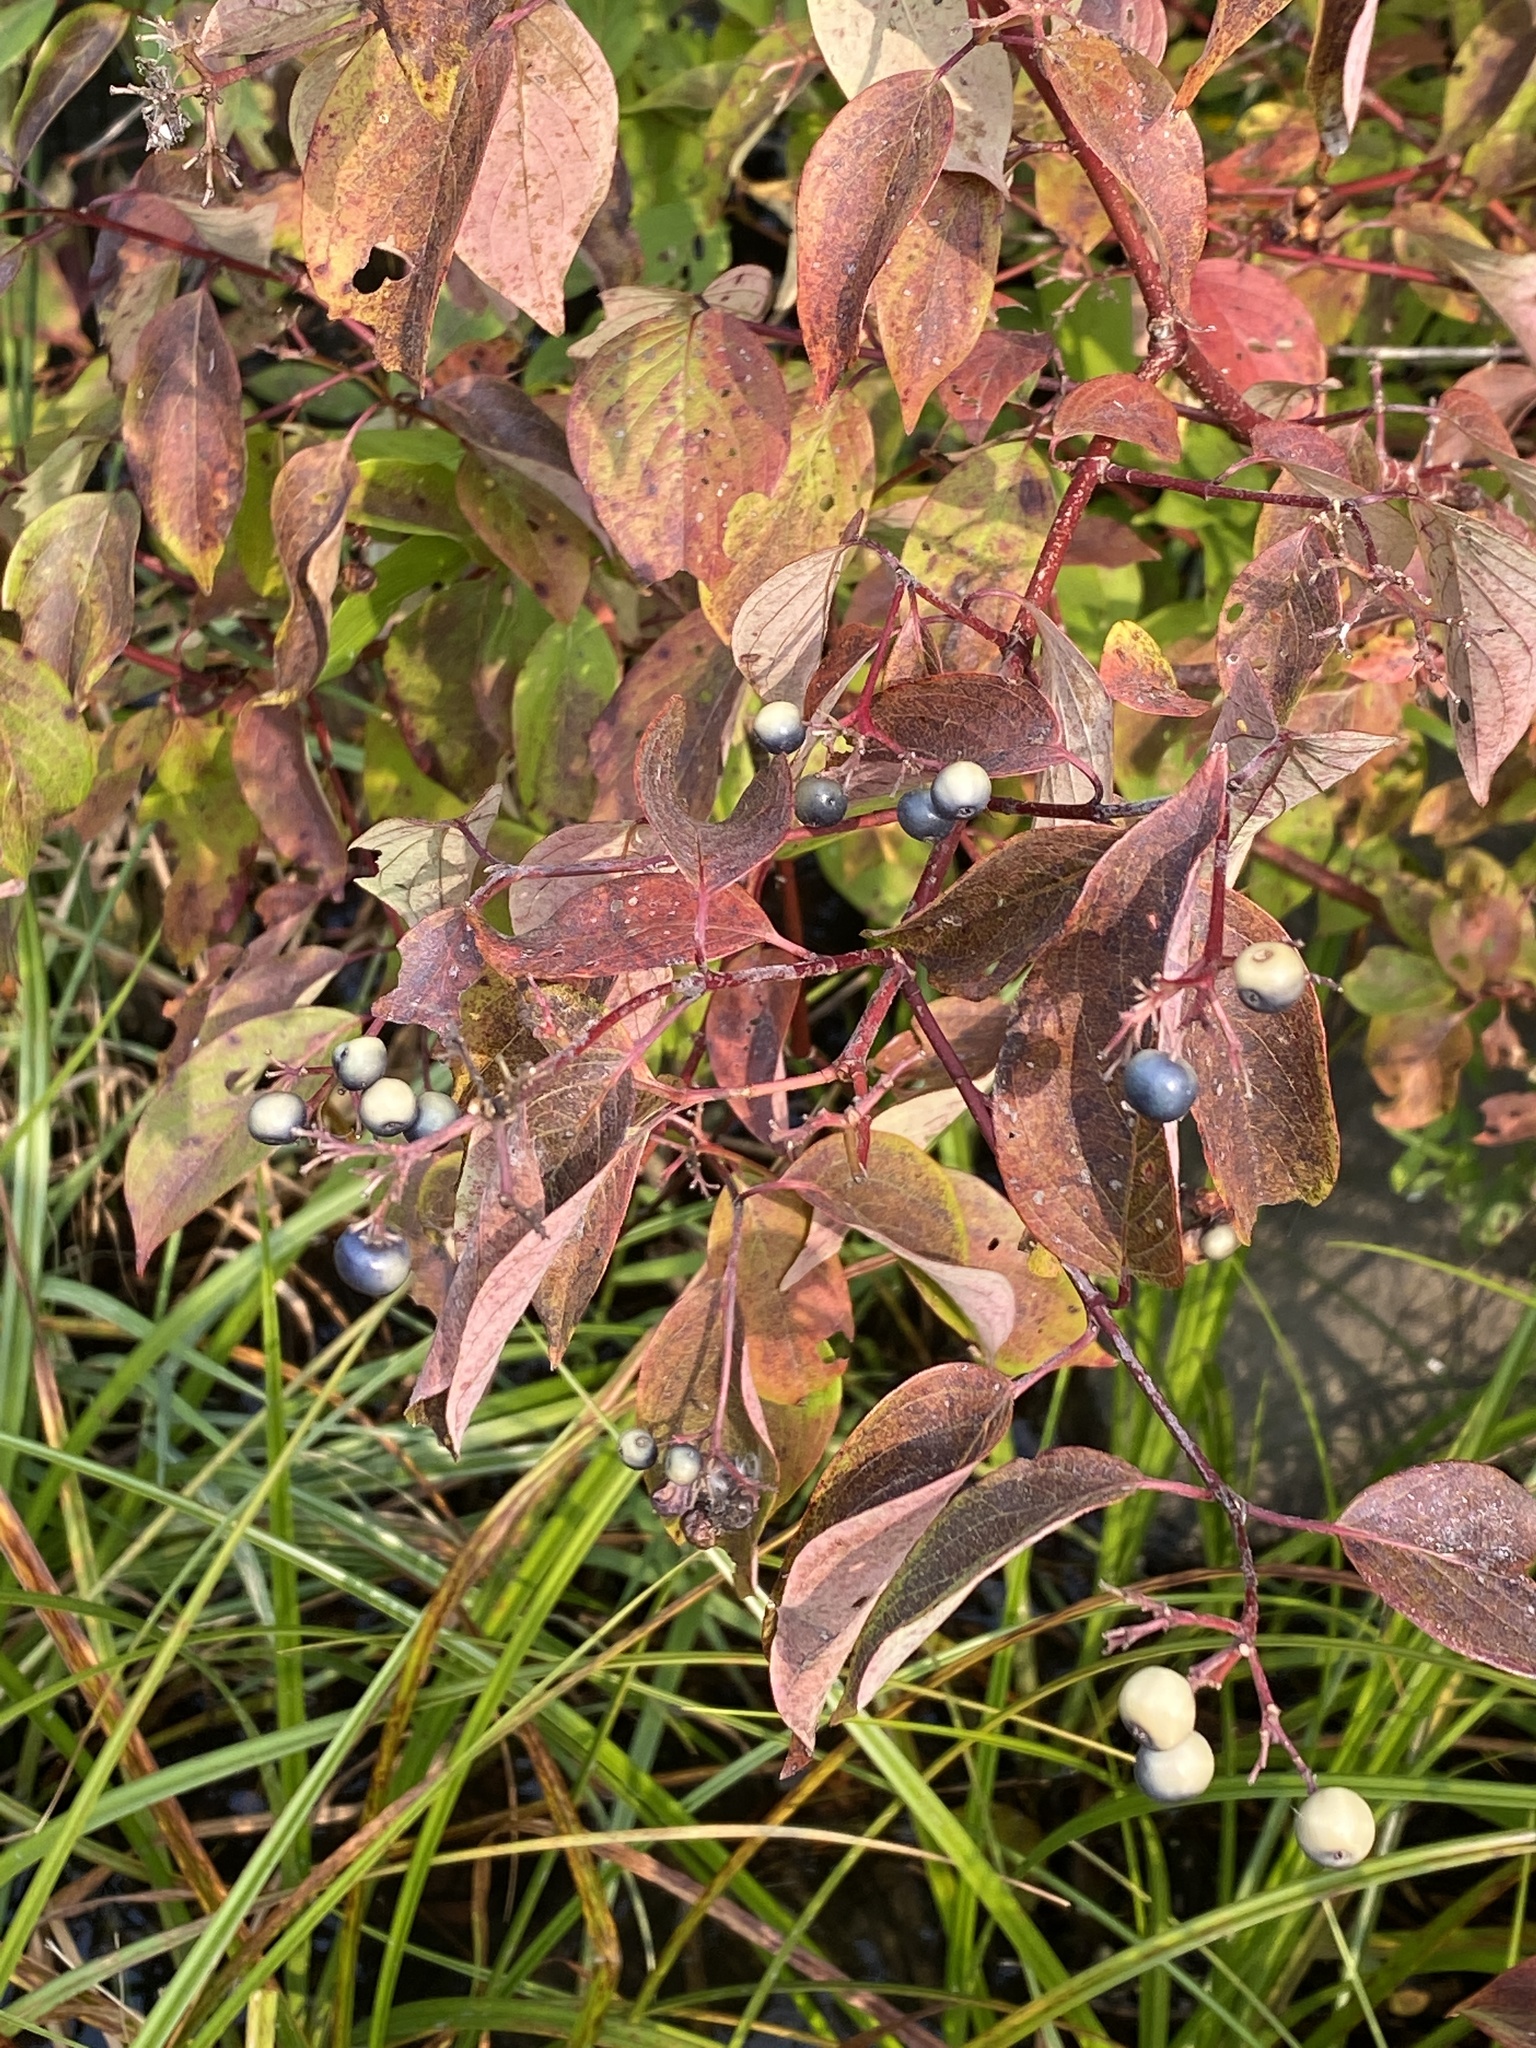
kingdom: Plantae
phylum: Tracheophyta
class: Magnoliopsida
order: Cornales
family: Cornaceae
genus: Cornus
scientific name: Cornus amomum
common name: Silky dogwood
